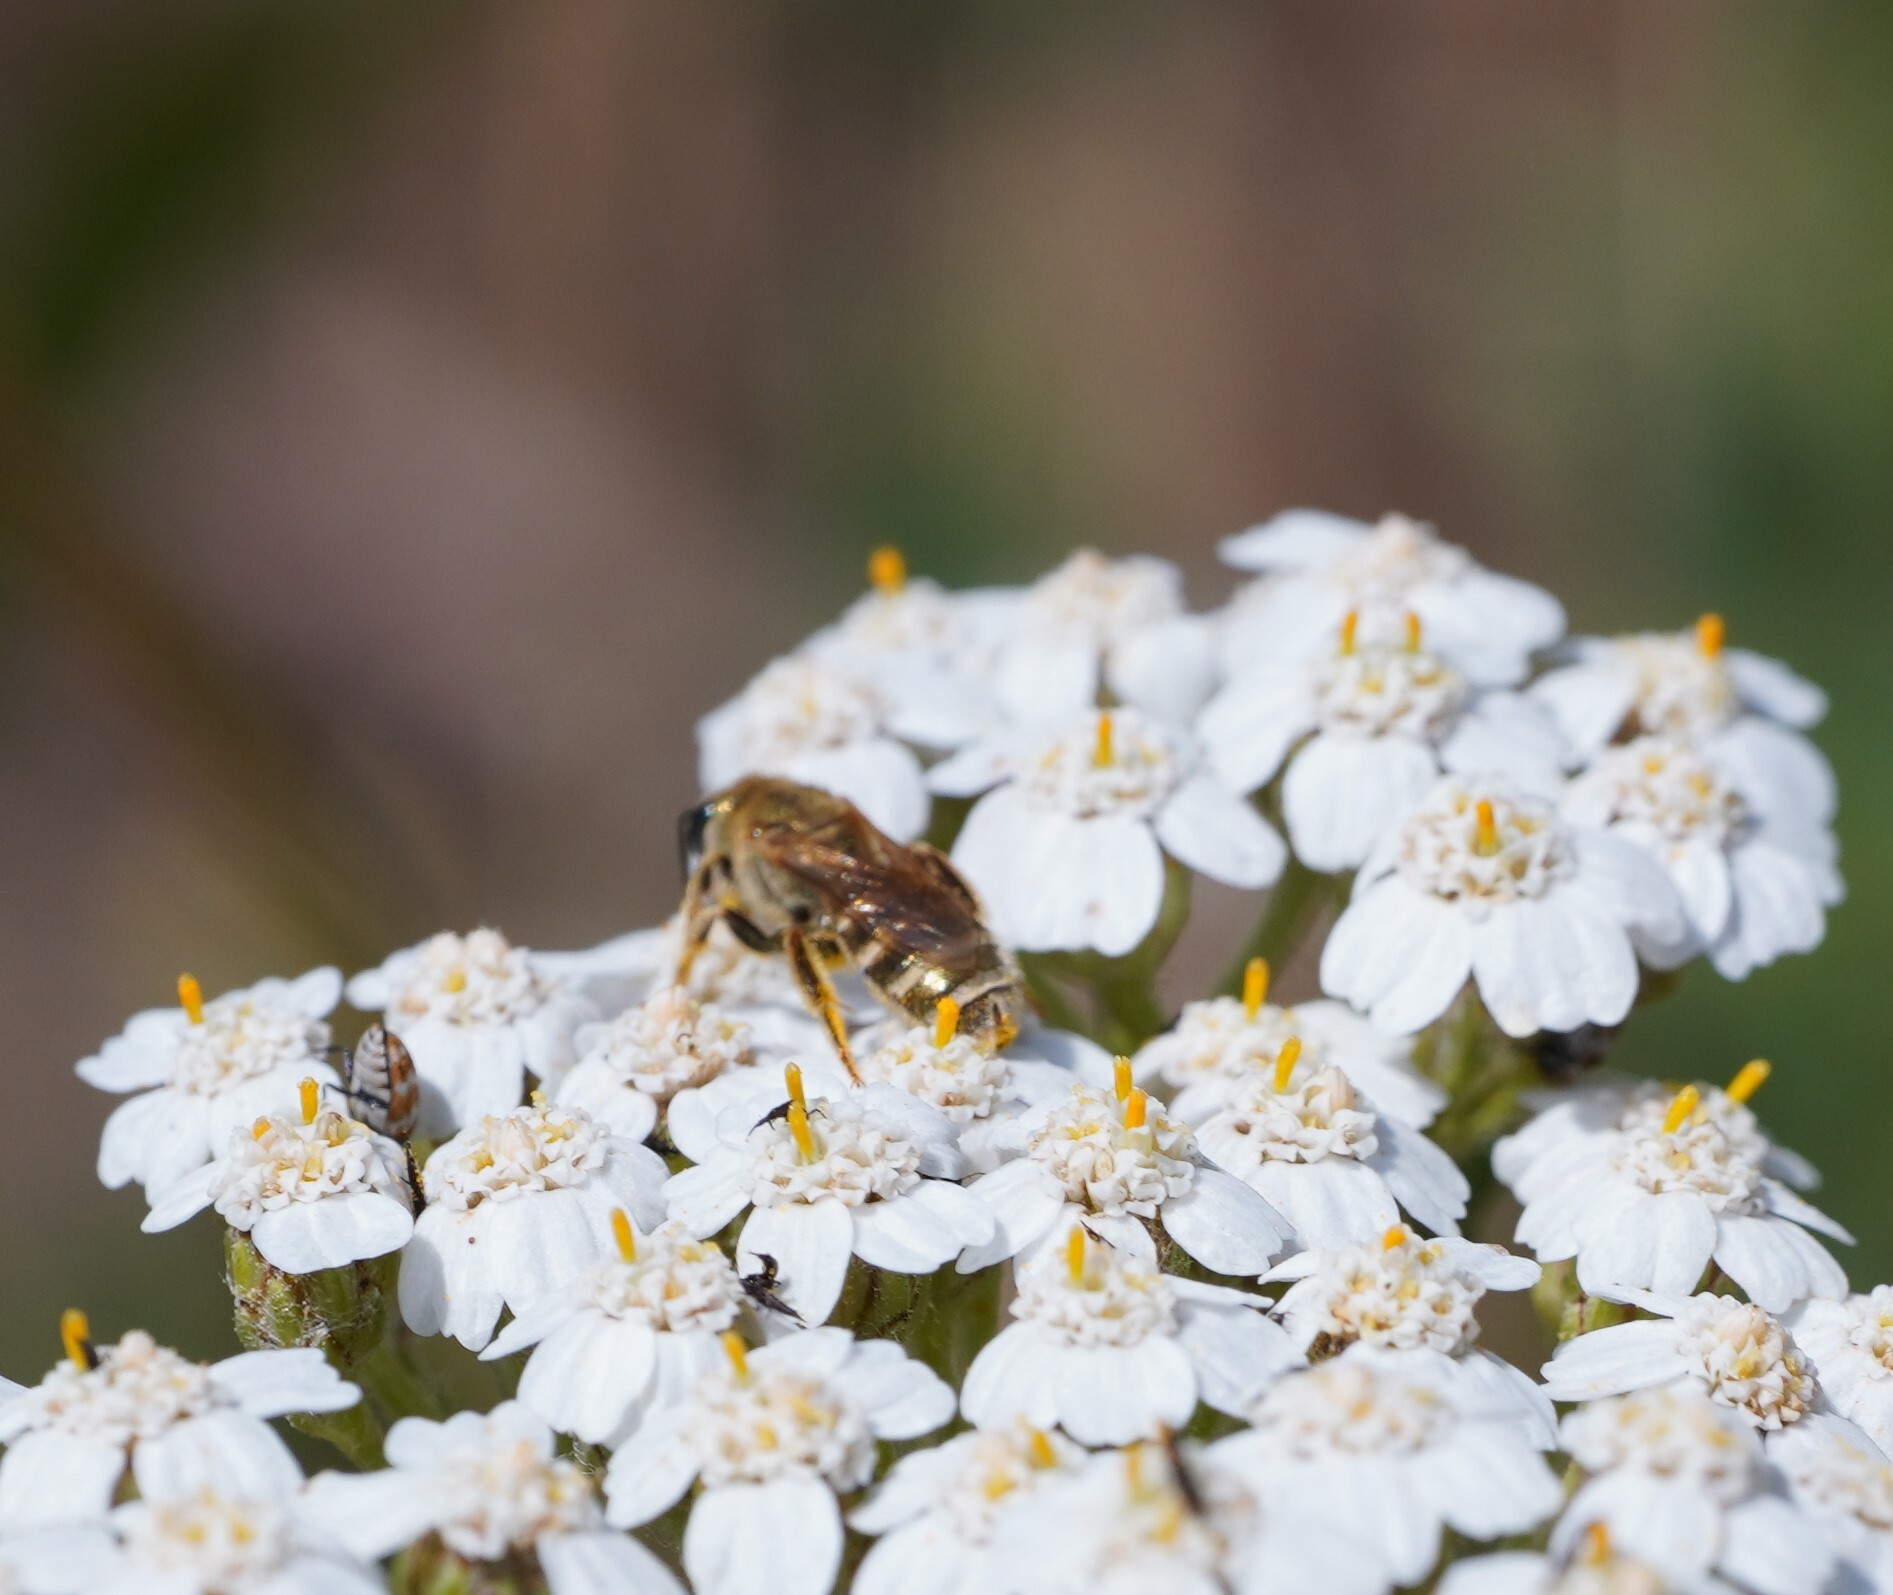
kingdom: Animalia
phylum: Arthropoda
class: Insecta
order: Hymenoptera
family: Halictidae
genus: Halictus
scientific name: Halictus subauratus
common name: Golden furrow bee
